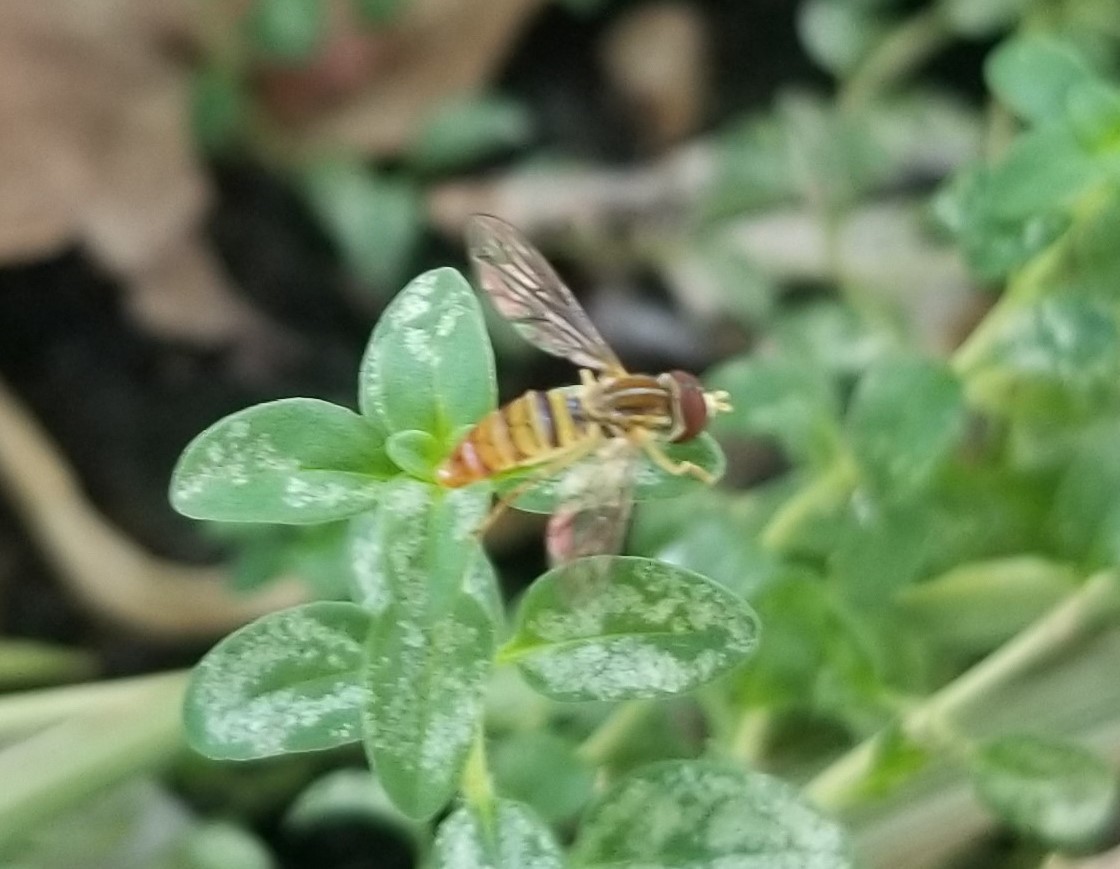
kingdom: Animalia
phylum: Arthropoda
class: Insecta
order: Diptera
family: Syrphidae
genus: Toxomerus
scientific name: Toxomerus politus
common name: Maize calligrapher
